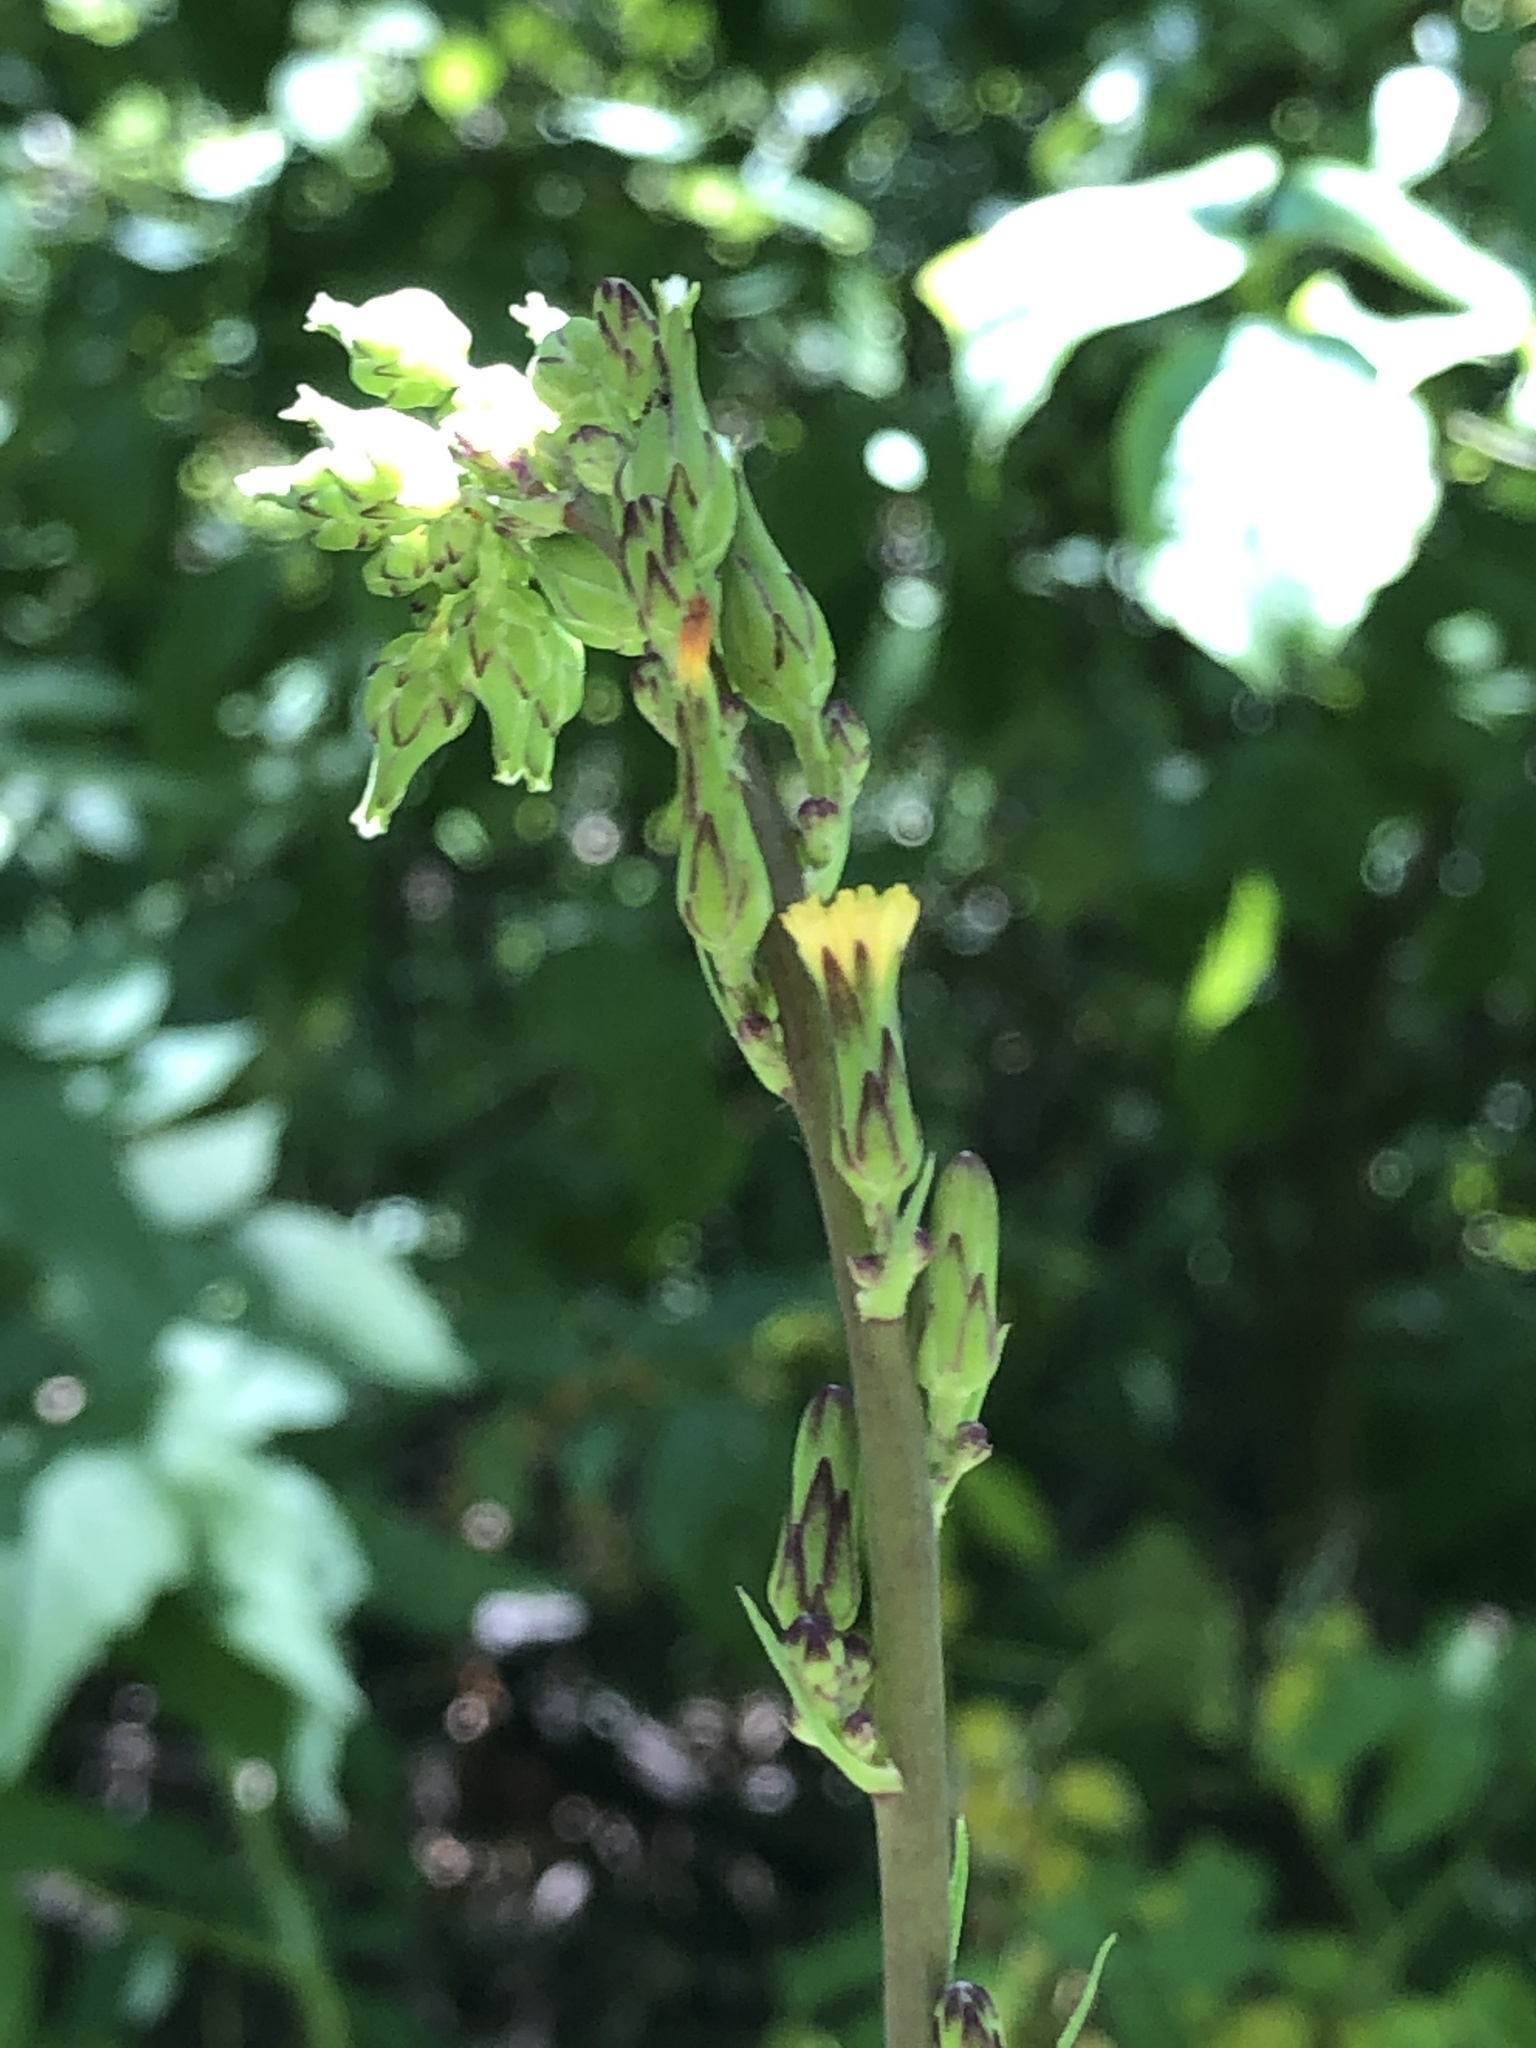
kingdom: Plantae
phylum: Tracheophyta
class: Magnoliopsida
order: Asterales
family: Asteraceae
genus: Lactuca
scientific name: Lactuca canadensis
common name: Canada lettuce
